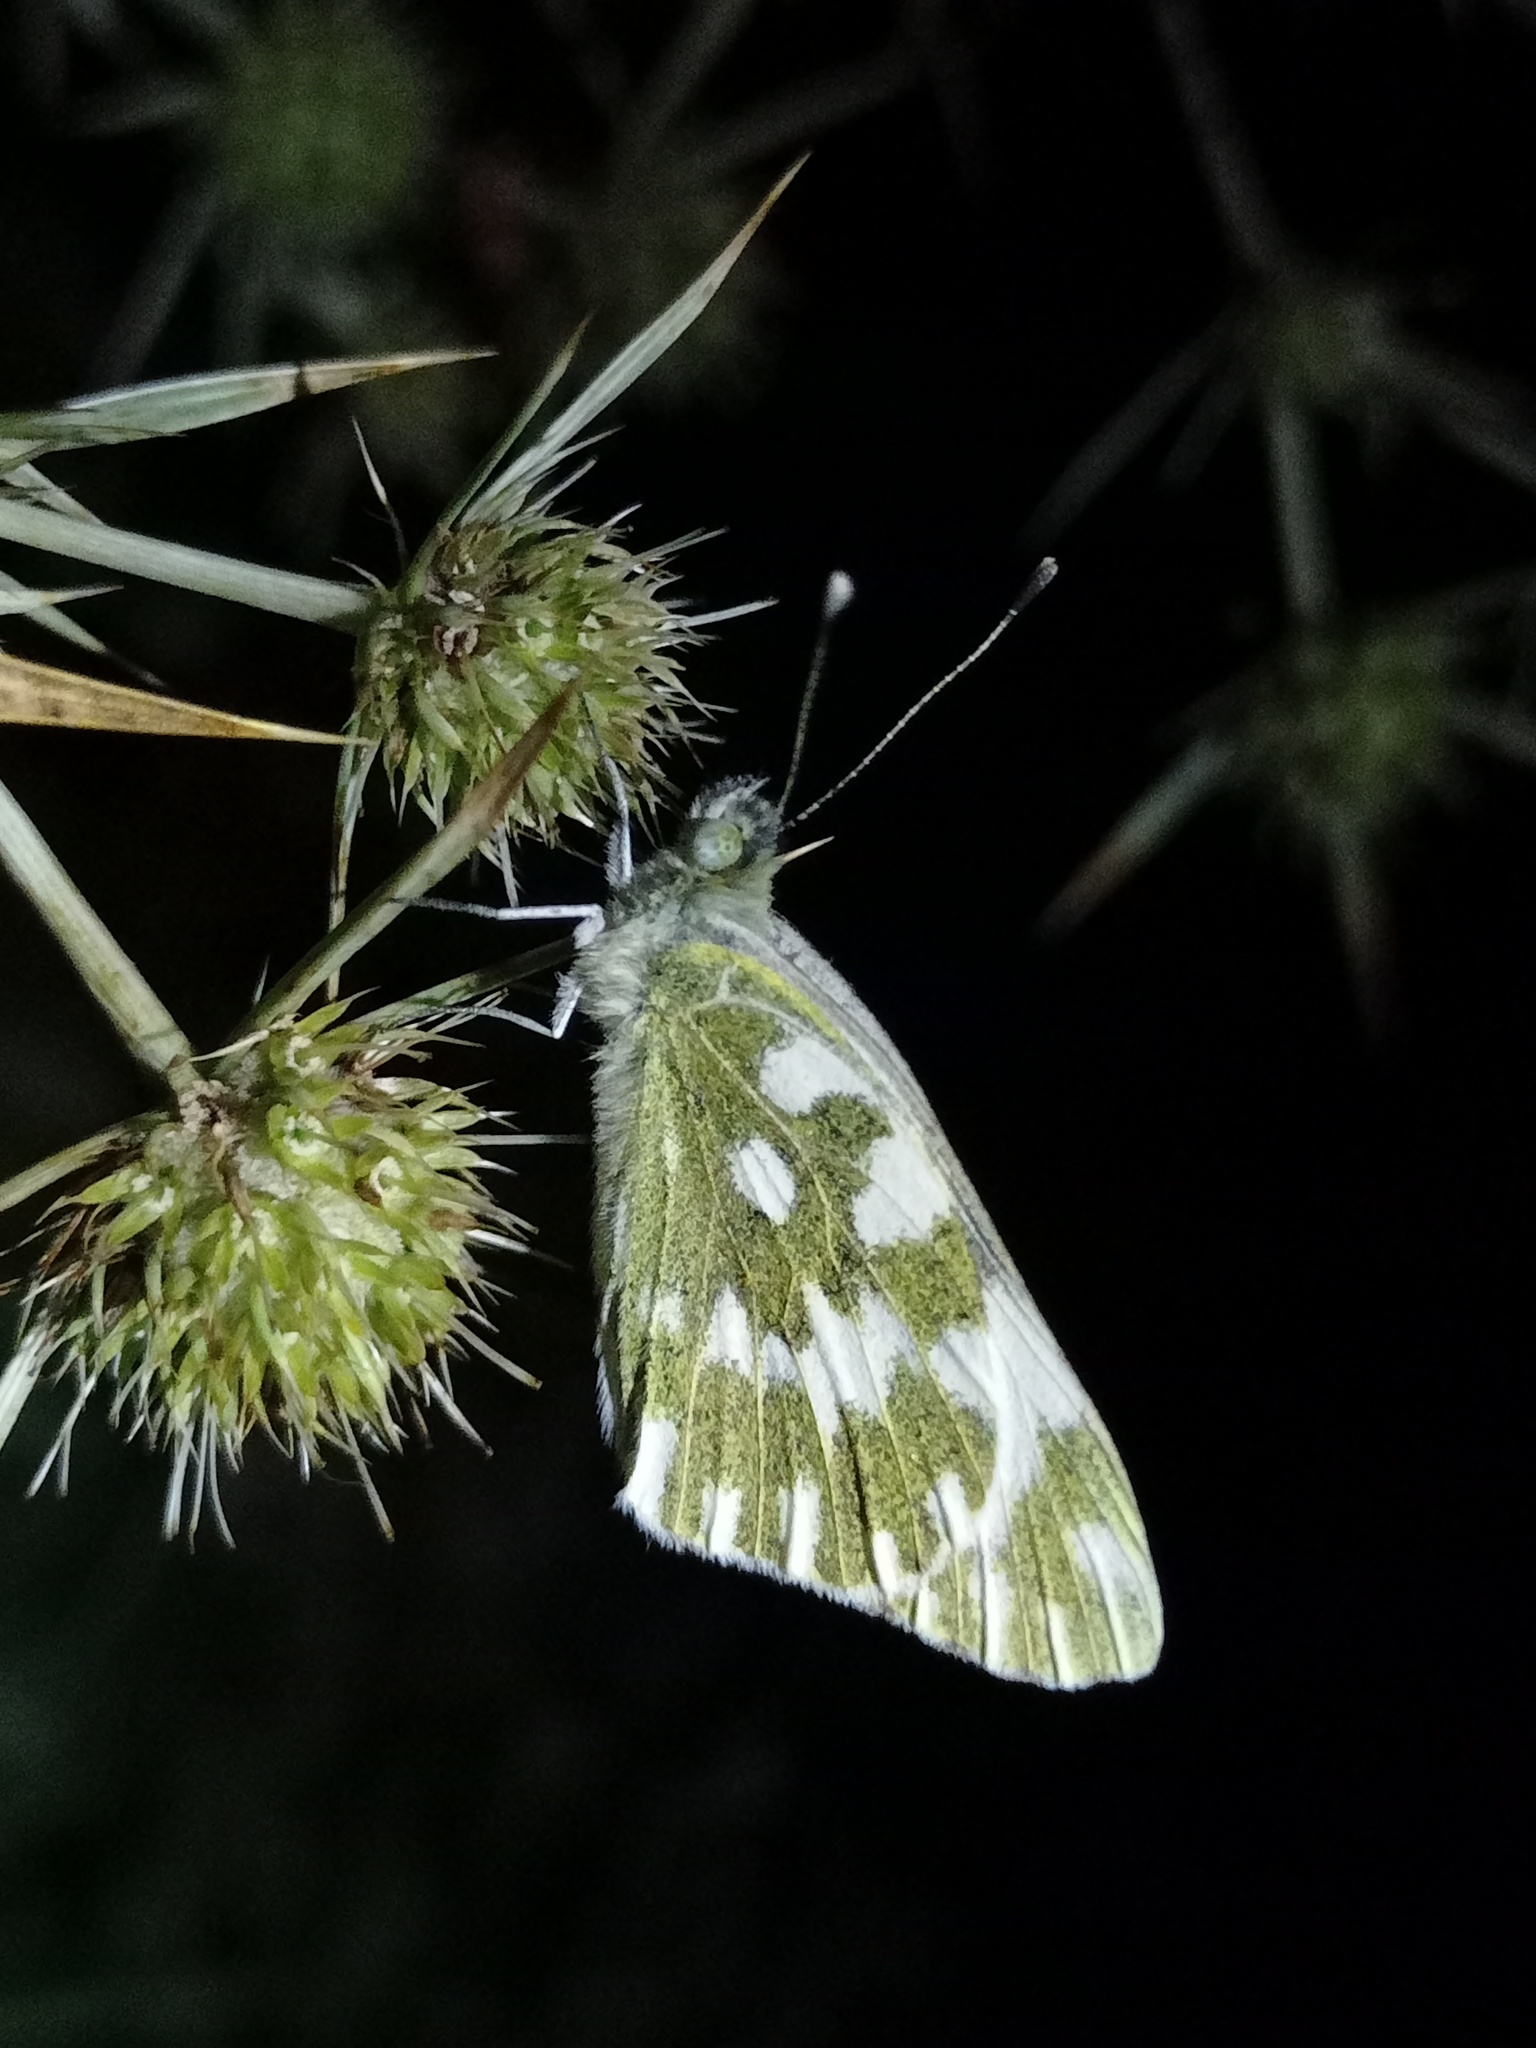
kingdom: Animalia
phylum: Arthropoda
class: Insecta
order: Lepidoptera
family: Pieridae
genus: Pontia
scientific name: Pontia edusa
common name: Eastern bath white
